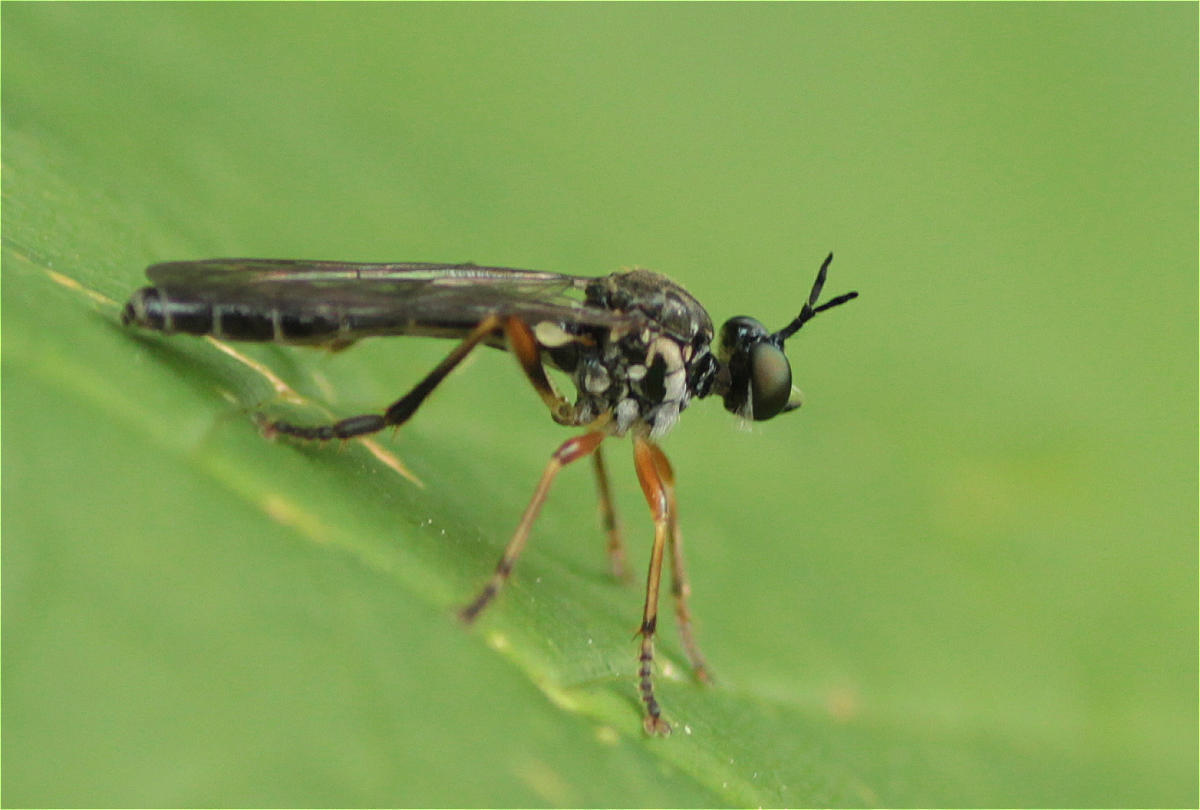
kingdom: Animalia
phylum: Arthropoda
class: Insecta
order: Diptera
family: Asilidae
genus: Dioctria
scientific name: Dioctria hyalipennis
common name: Stripe-legged robberfly
